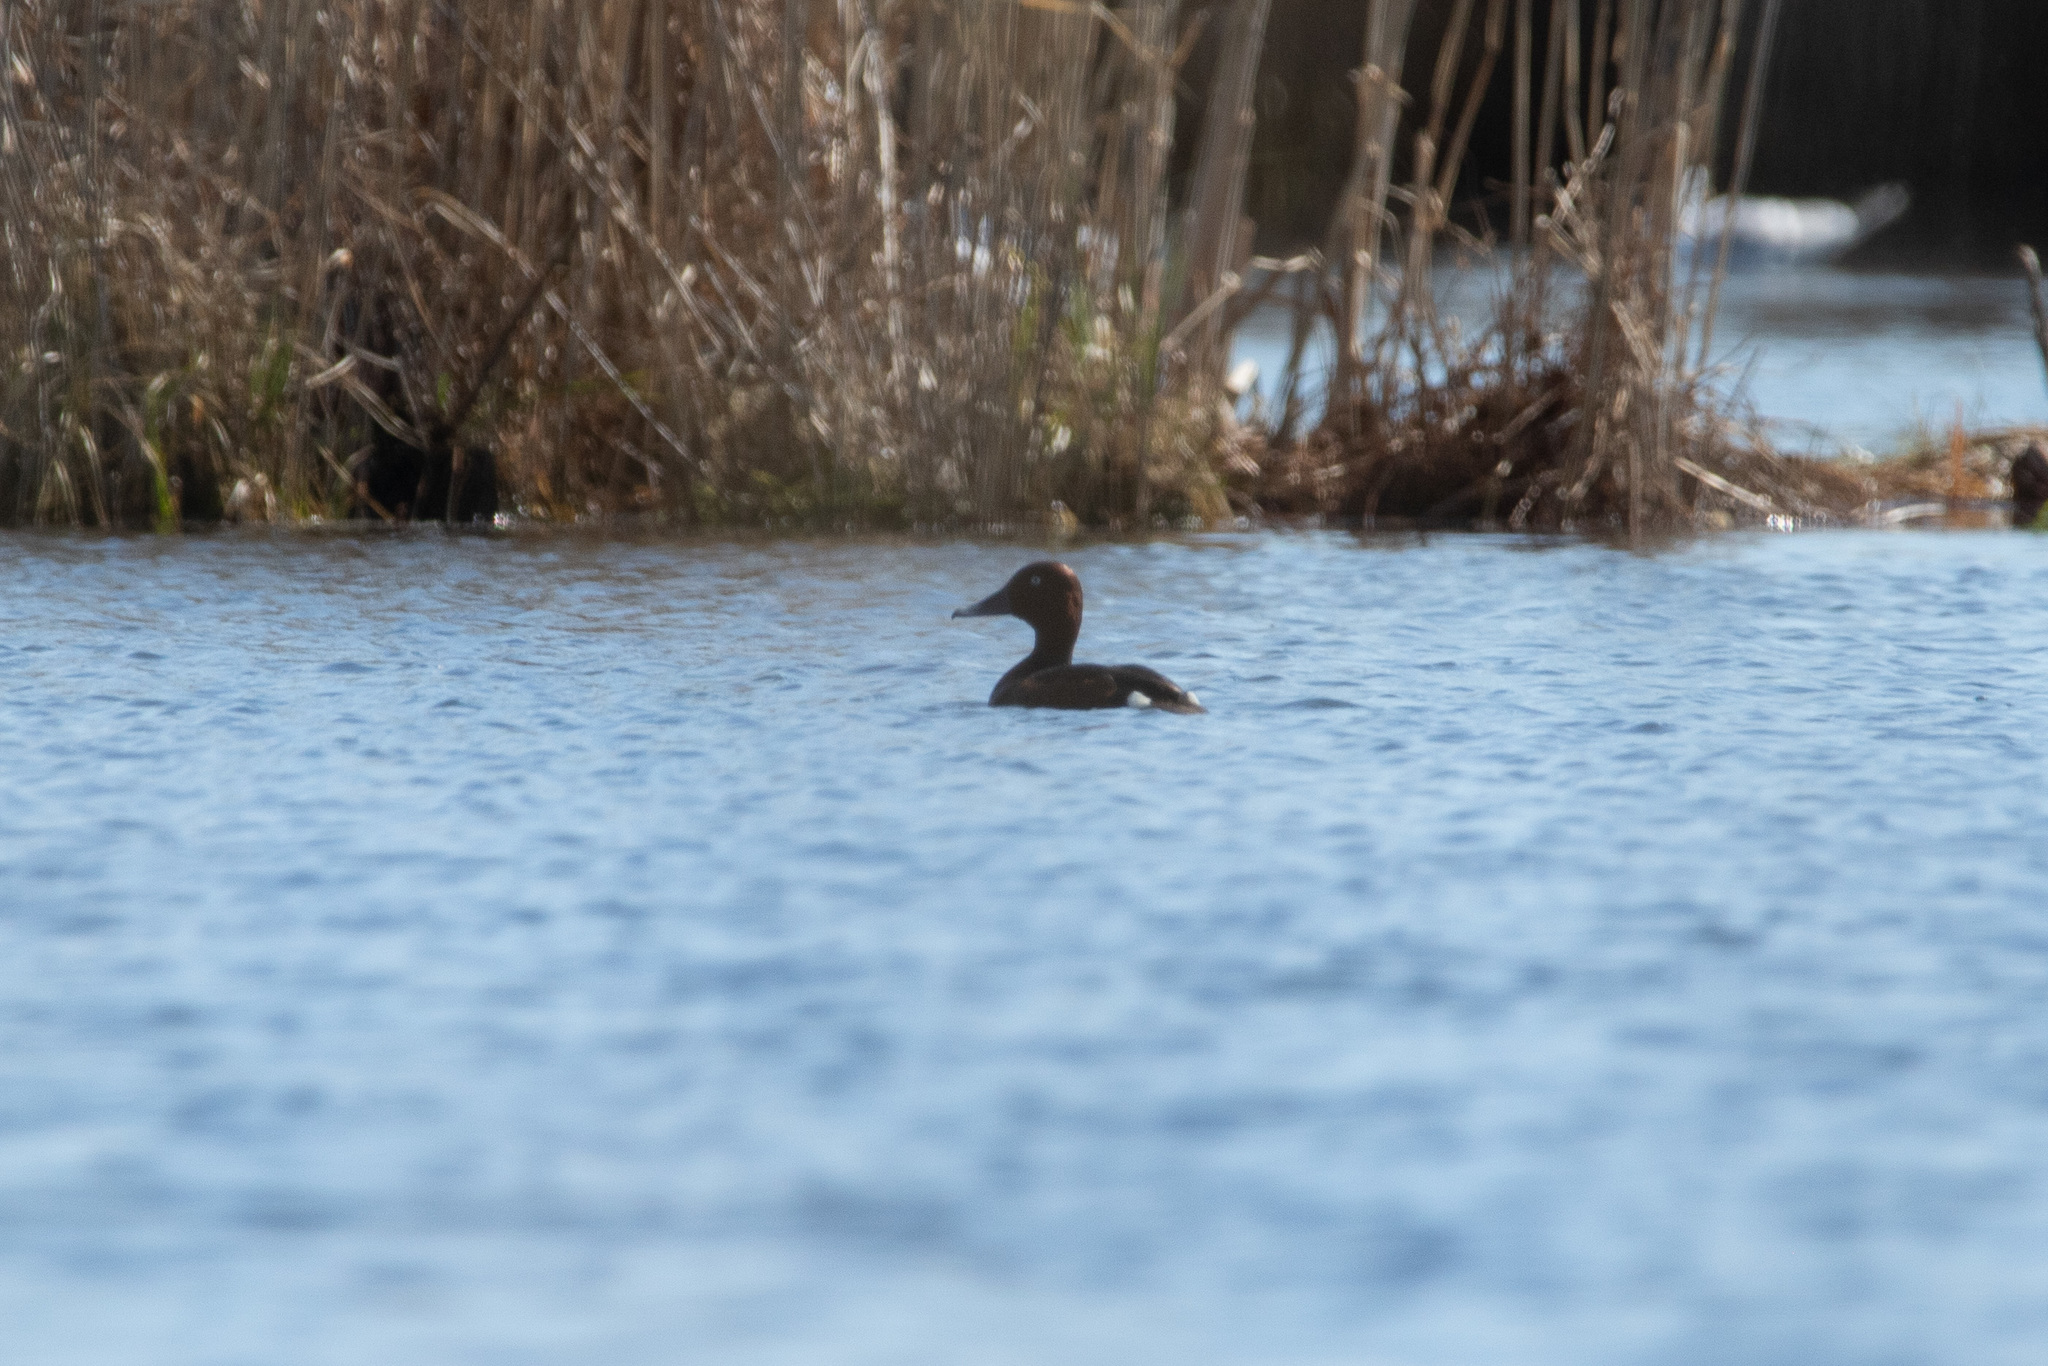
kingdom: Animalia
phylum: Chordata
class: Aves
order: Anseriformes
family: Anatidae
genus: Aythya
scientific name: Aythya nyroca
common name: Ferruginous duck
